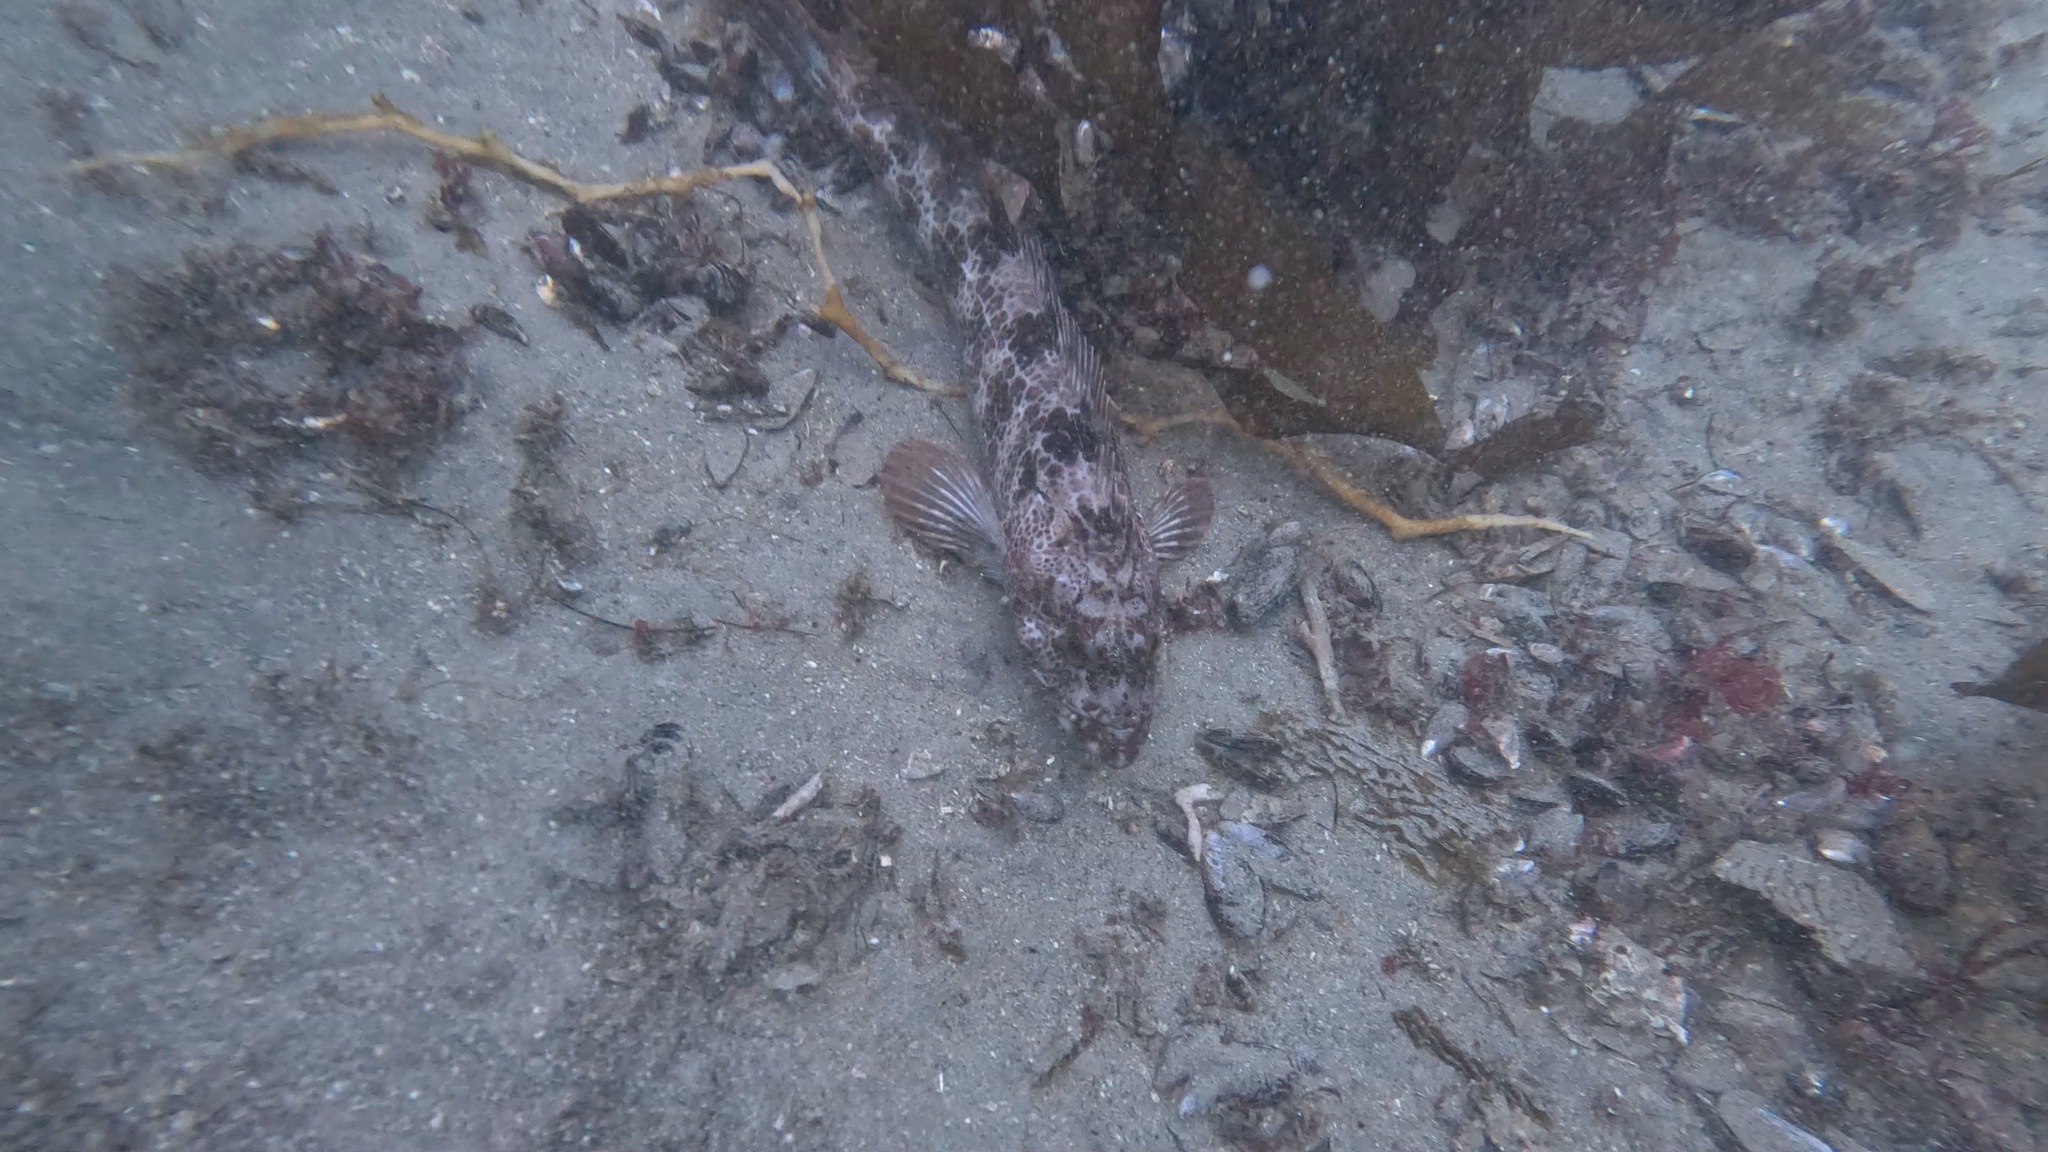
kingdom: Animalia
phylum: Chordata
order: Scorpaeniformes
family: Hexagrammidae
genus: Ophiodon
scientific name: Ophiodon elongatus
